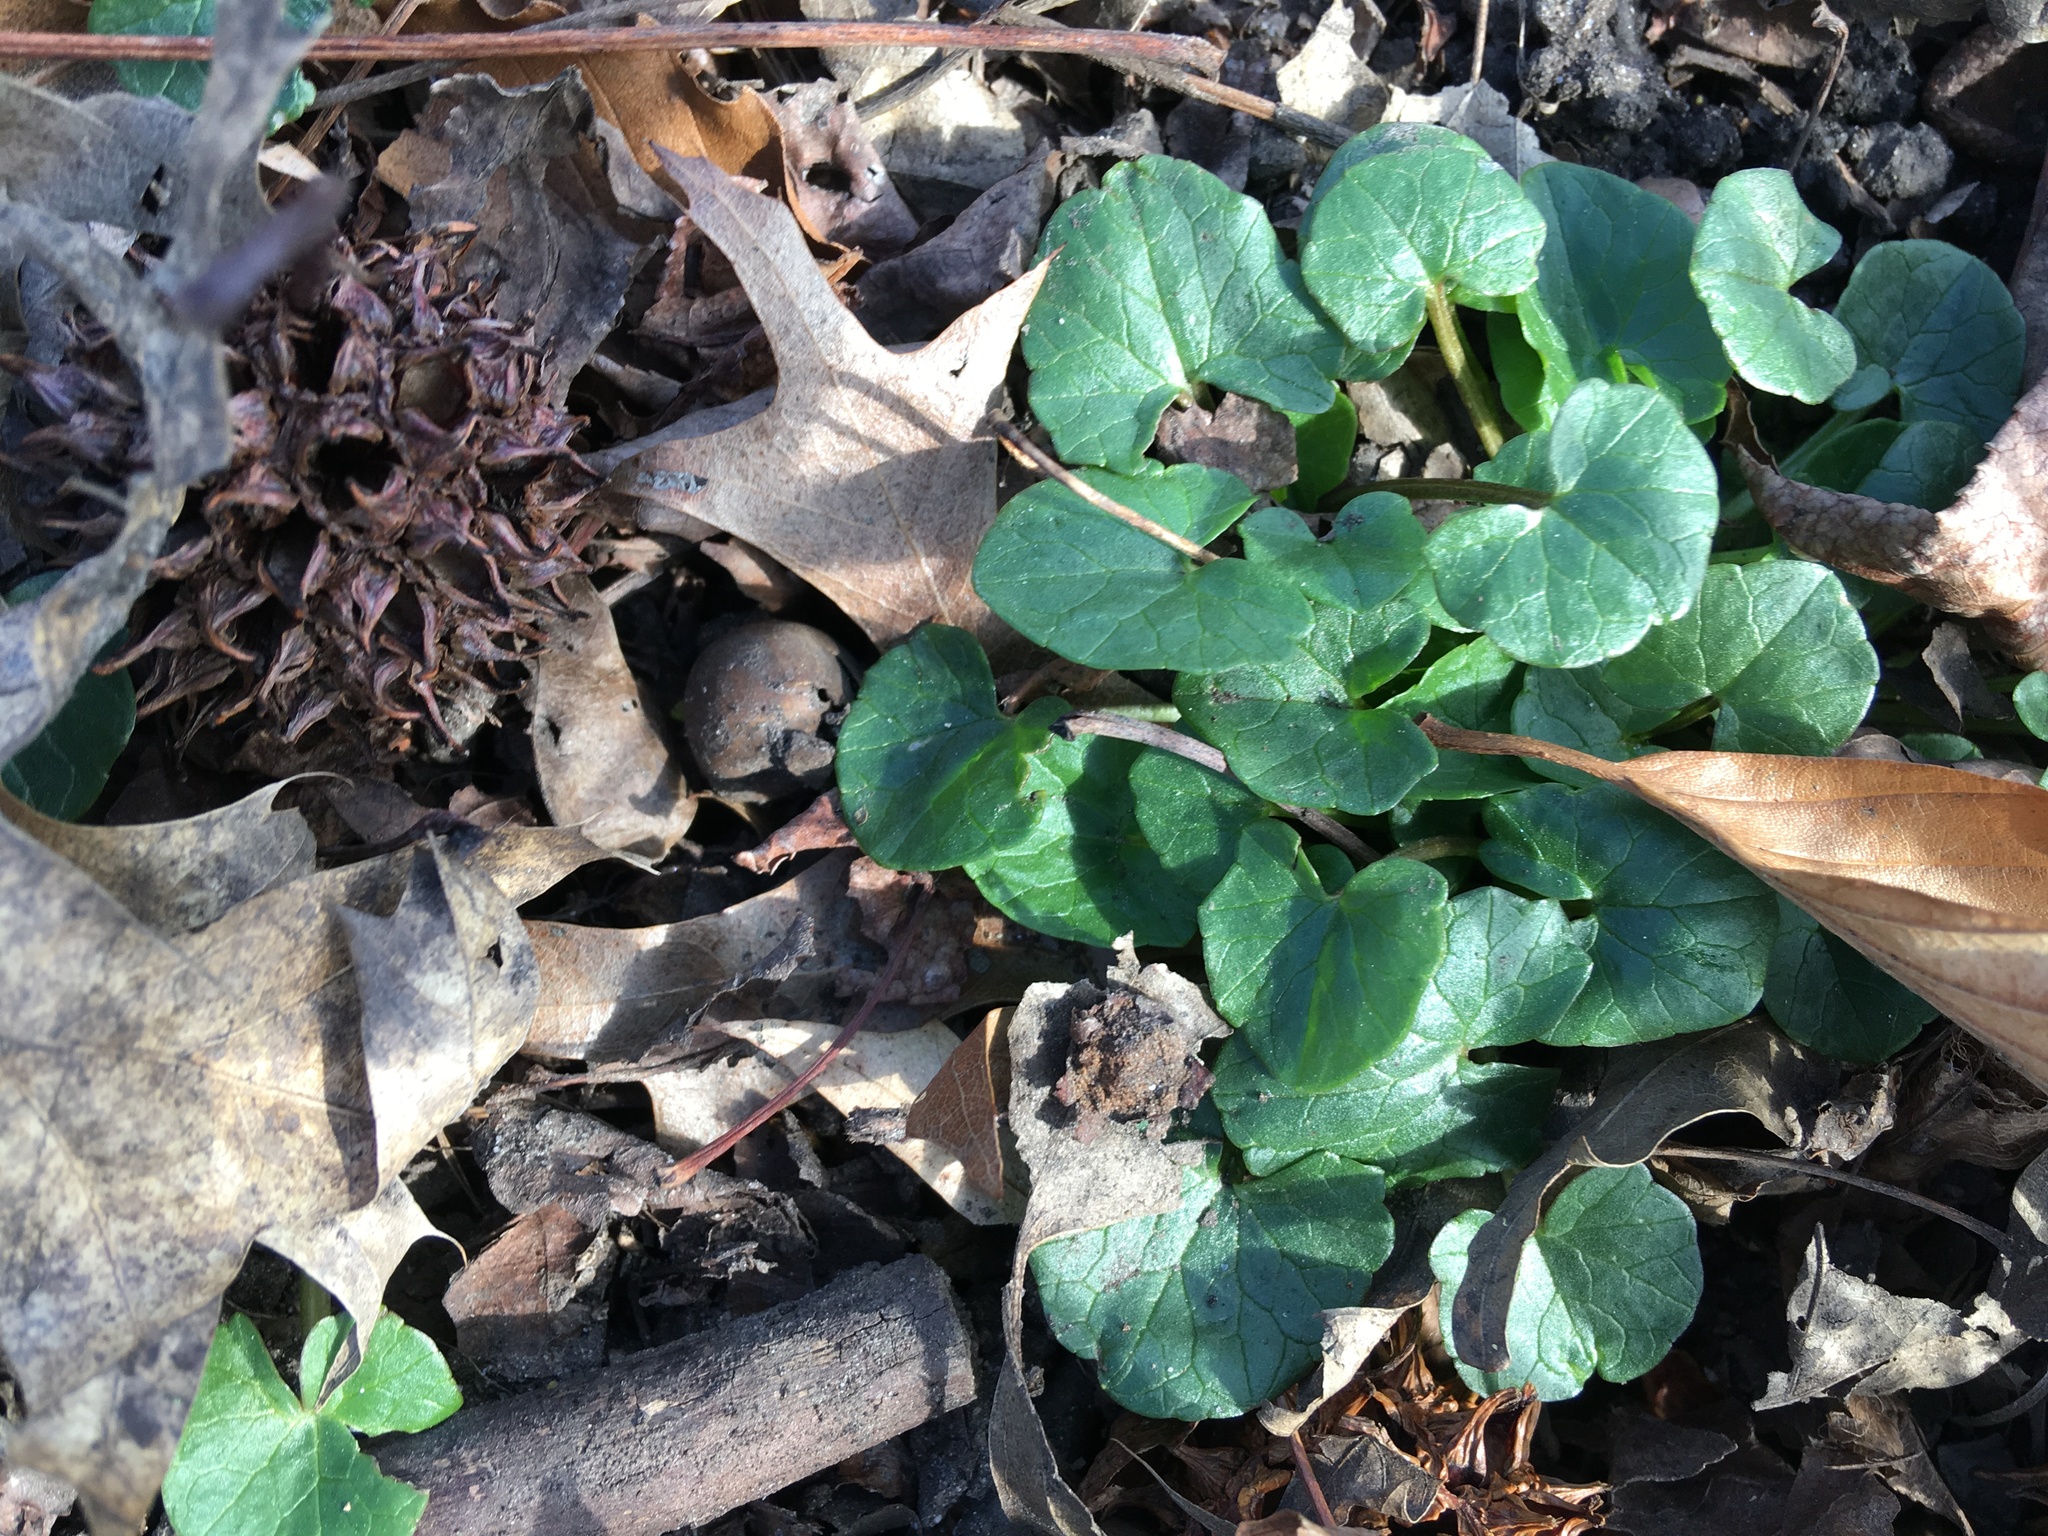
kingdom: Plantae
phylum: Tracheophyta
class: Magnoliopsida
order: Ranunculales
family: Ranunculaceae
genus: Ficaria
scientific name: Ficaria verna
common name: Lesser celandine
